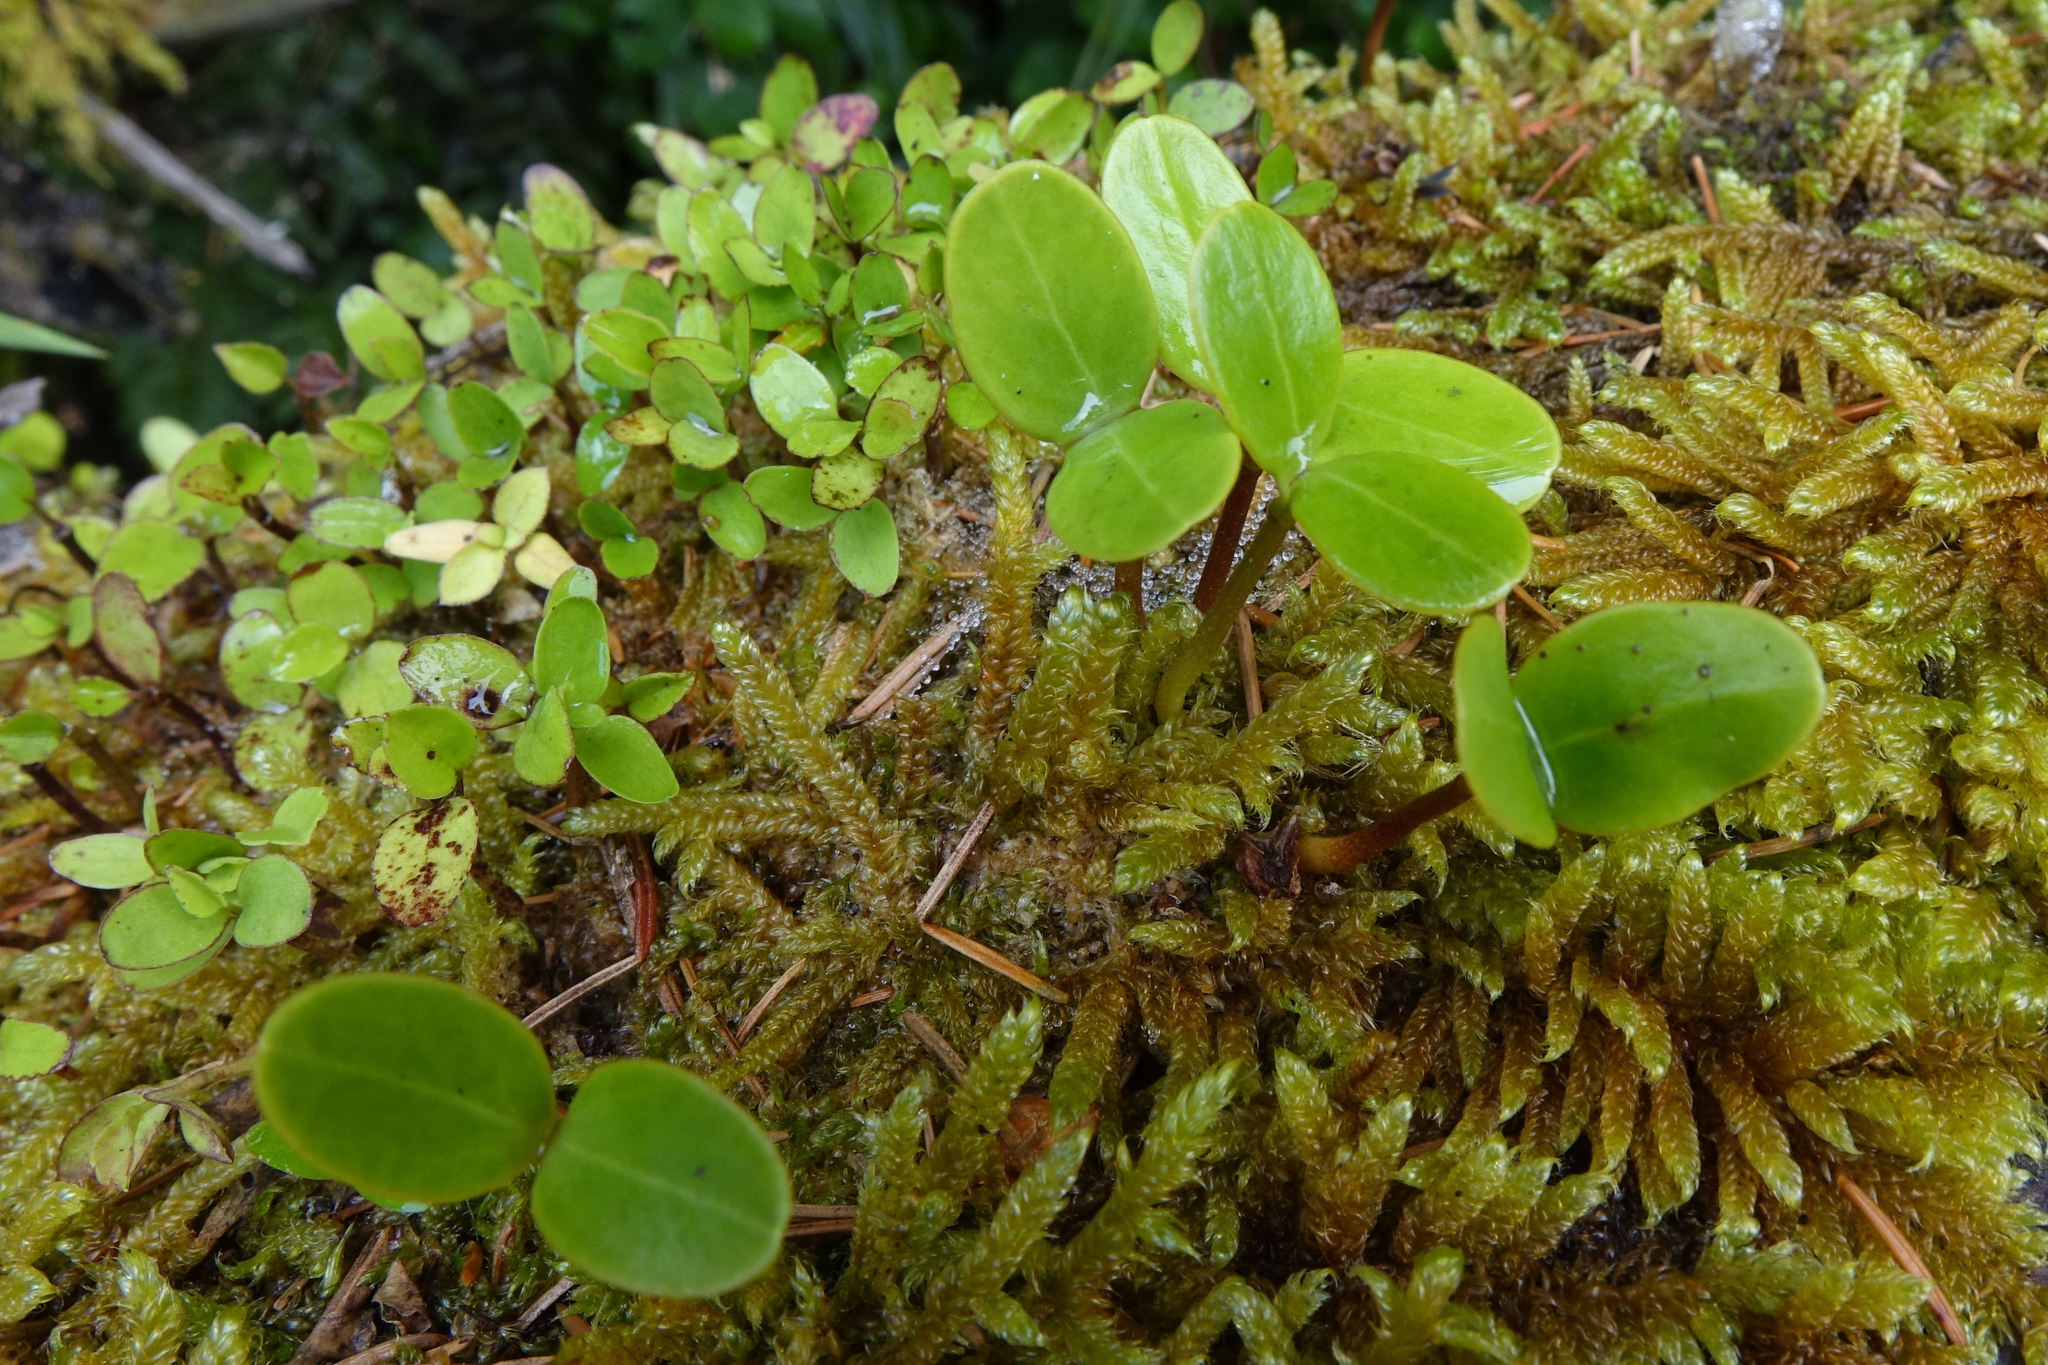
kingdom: Plantae
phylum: Tracheophyta
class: Magnoliopsida
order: Apiales
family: Griseliniaceae
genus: Griselinia
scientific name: Griselinia littoralis
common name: New zealand broadleaf
